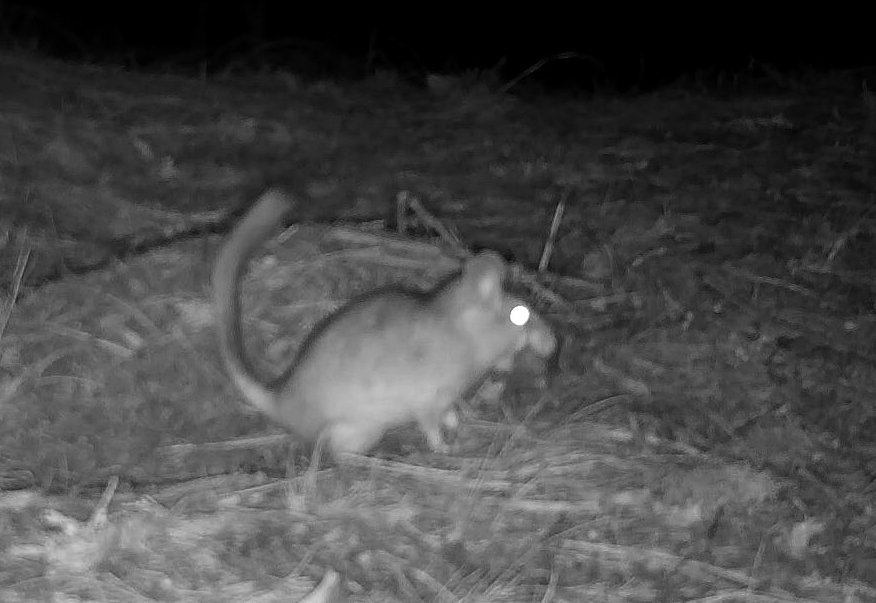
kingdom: Animalia
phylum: Chordata
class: Mammalia
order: Rodentia
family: Cricetidae
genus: Neotoma
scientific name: Neotoma cinerea
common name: Bushy-tailed woodrat
